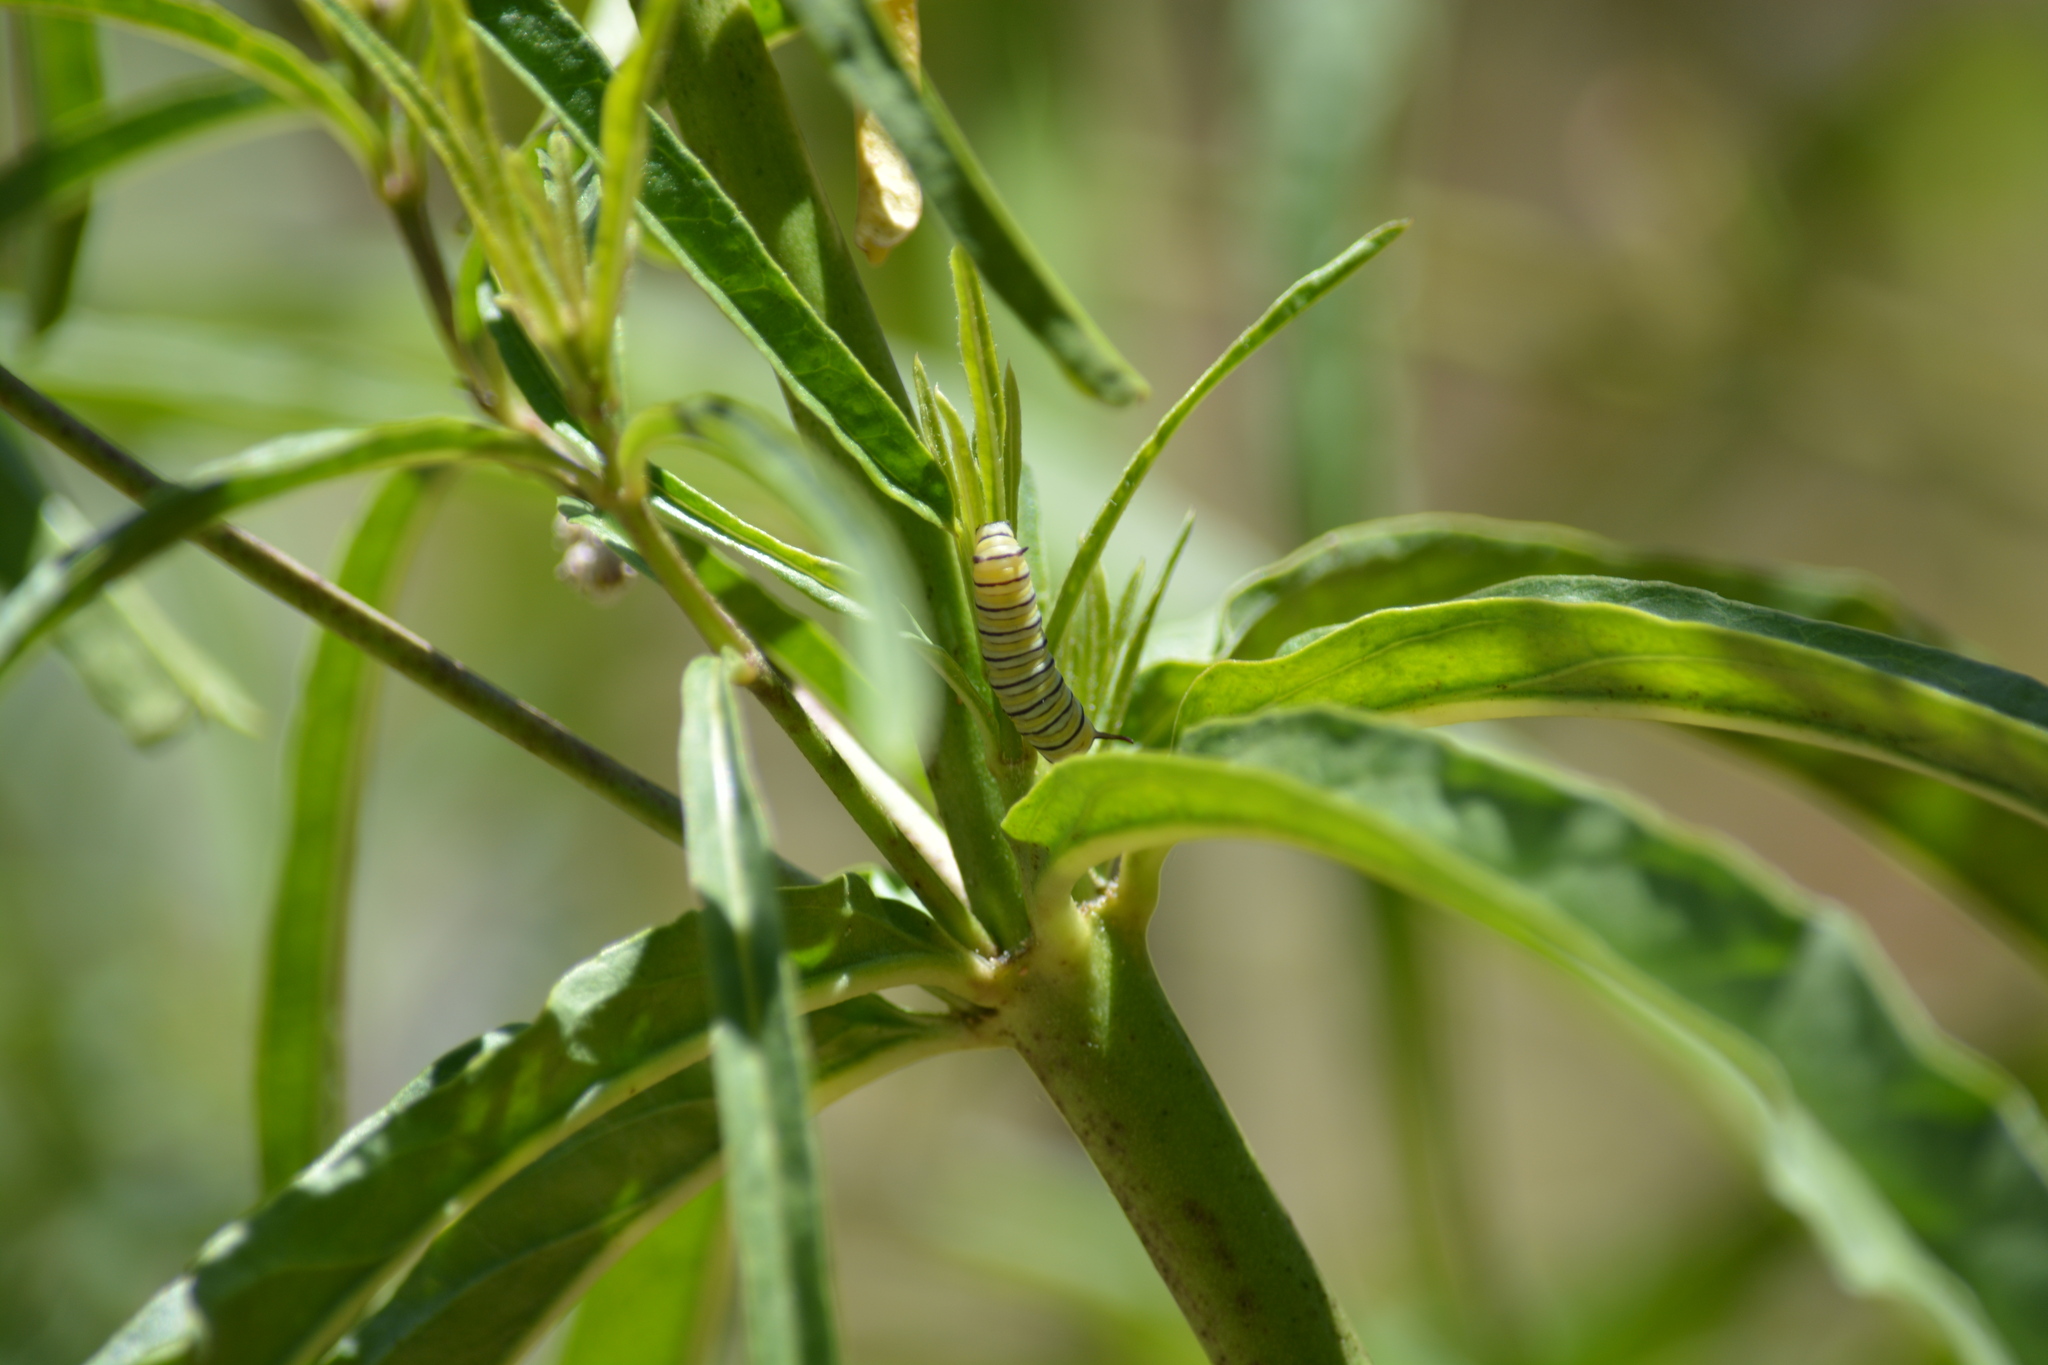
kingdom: Animalia
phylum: Arthropoda
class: Insecta
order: Lepidoptera
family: Nymphalidae
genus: Danaus
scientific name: Danaus plexippus
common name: Monarch
